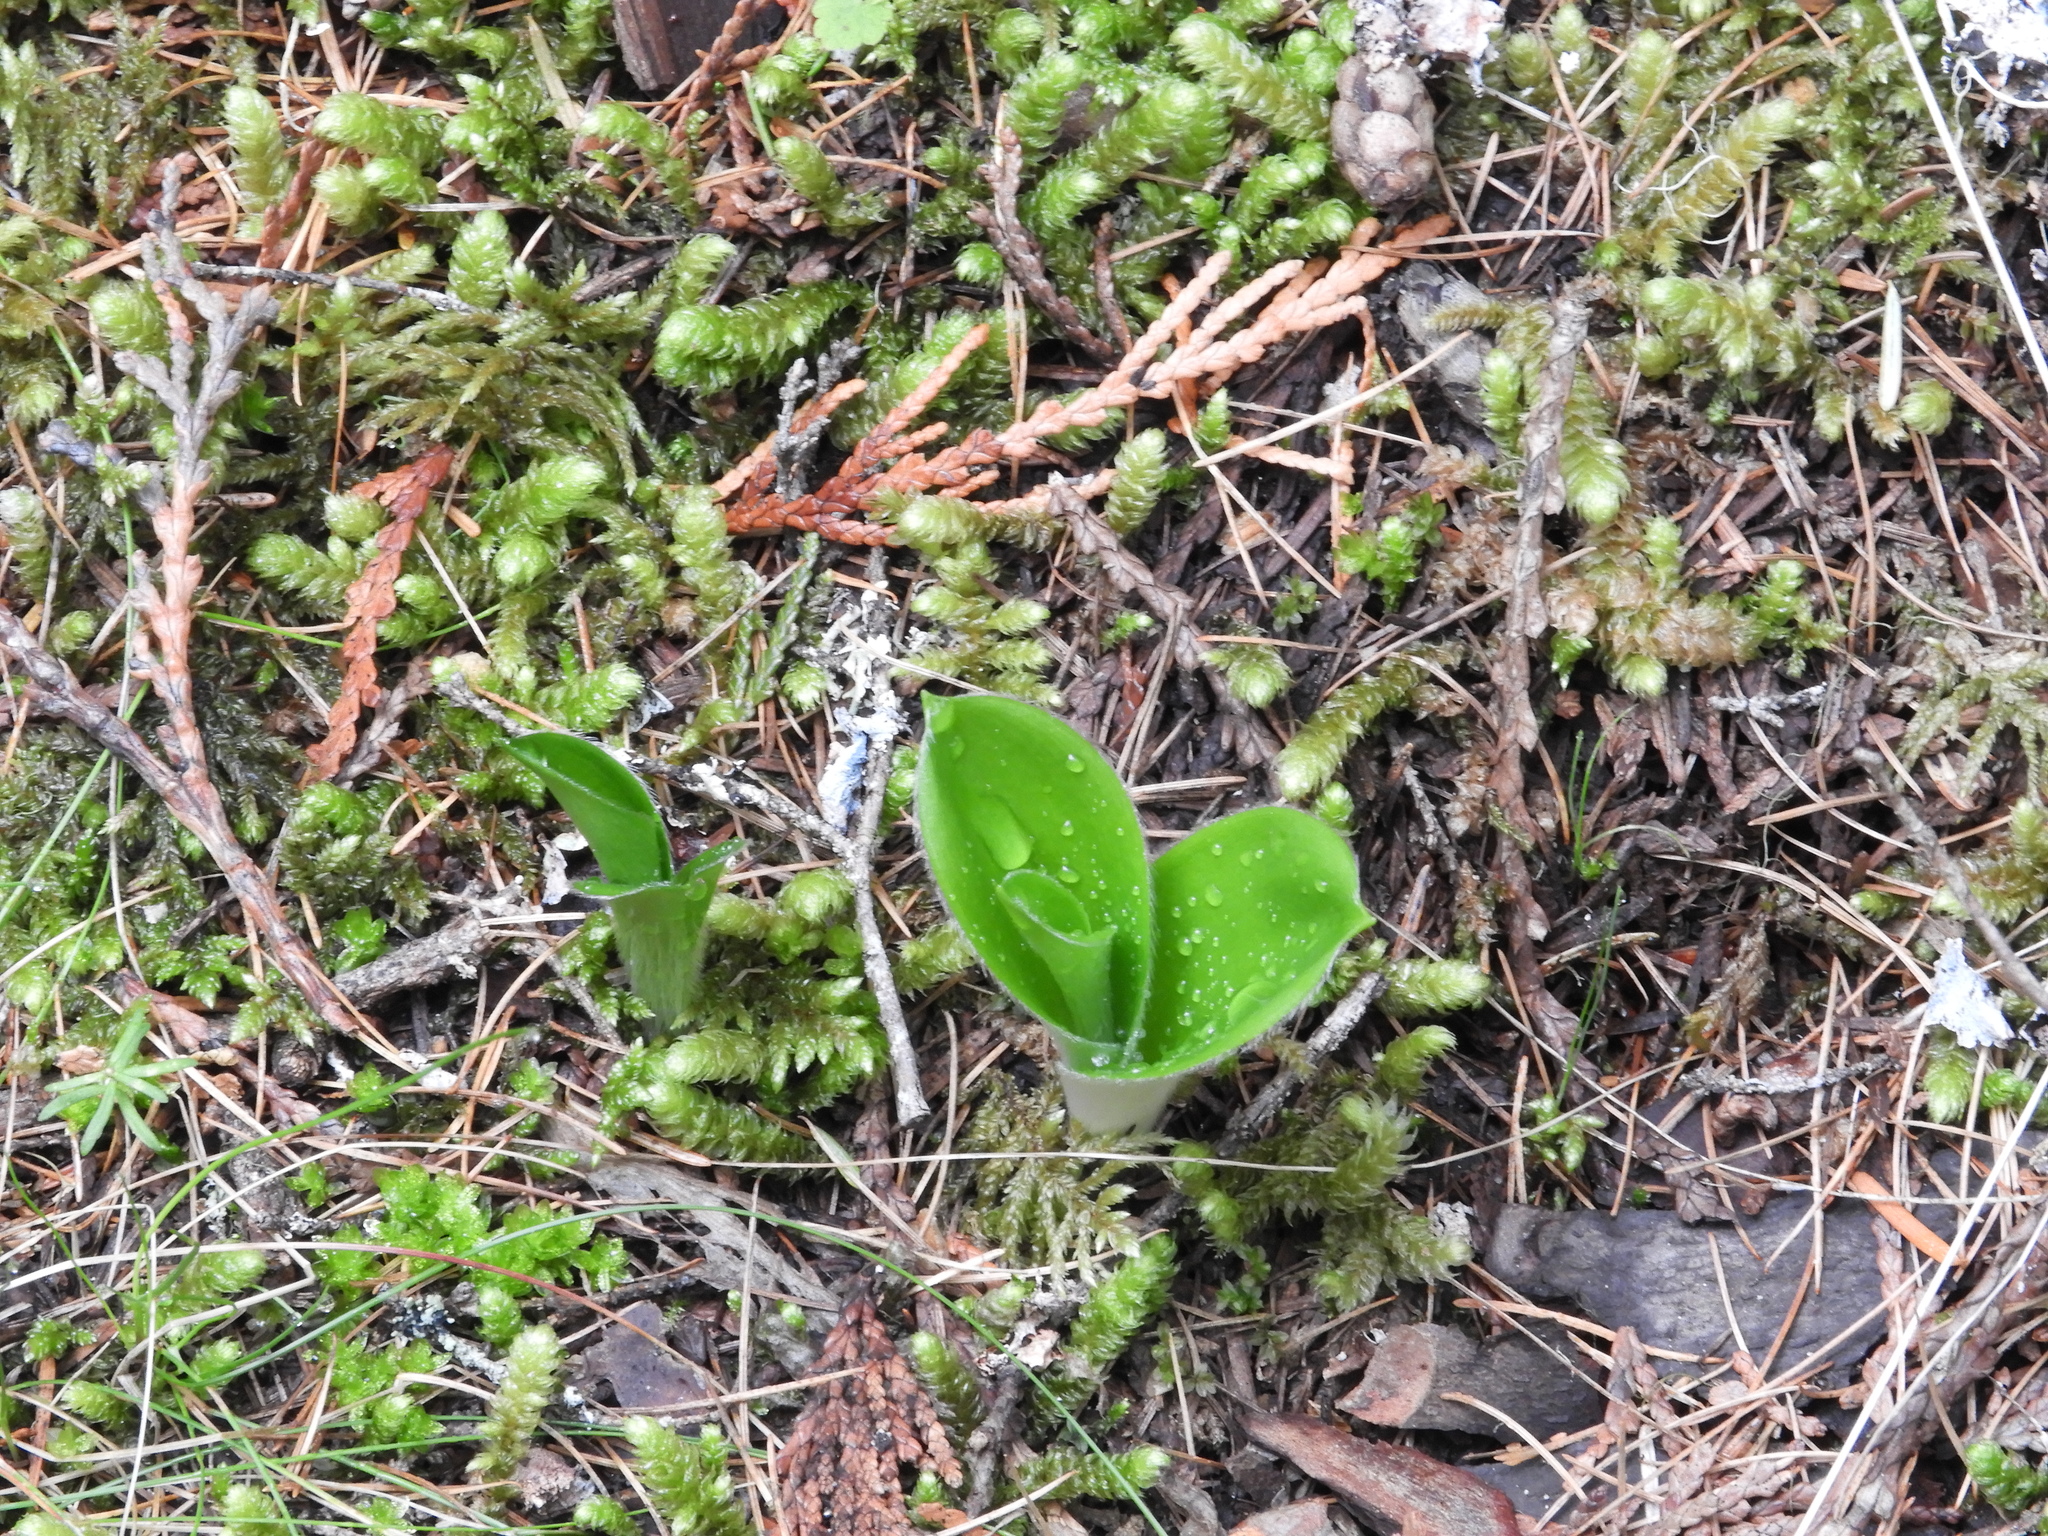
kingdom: Plantae
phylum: Tracheophyta
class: Liliopsida
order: Liliales
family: Liliaceae
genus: Clintonia
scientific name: Clintonia uniflora
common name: Queen's cup
